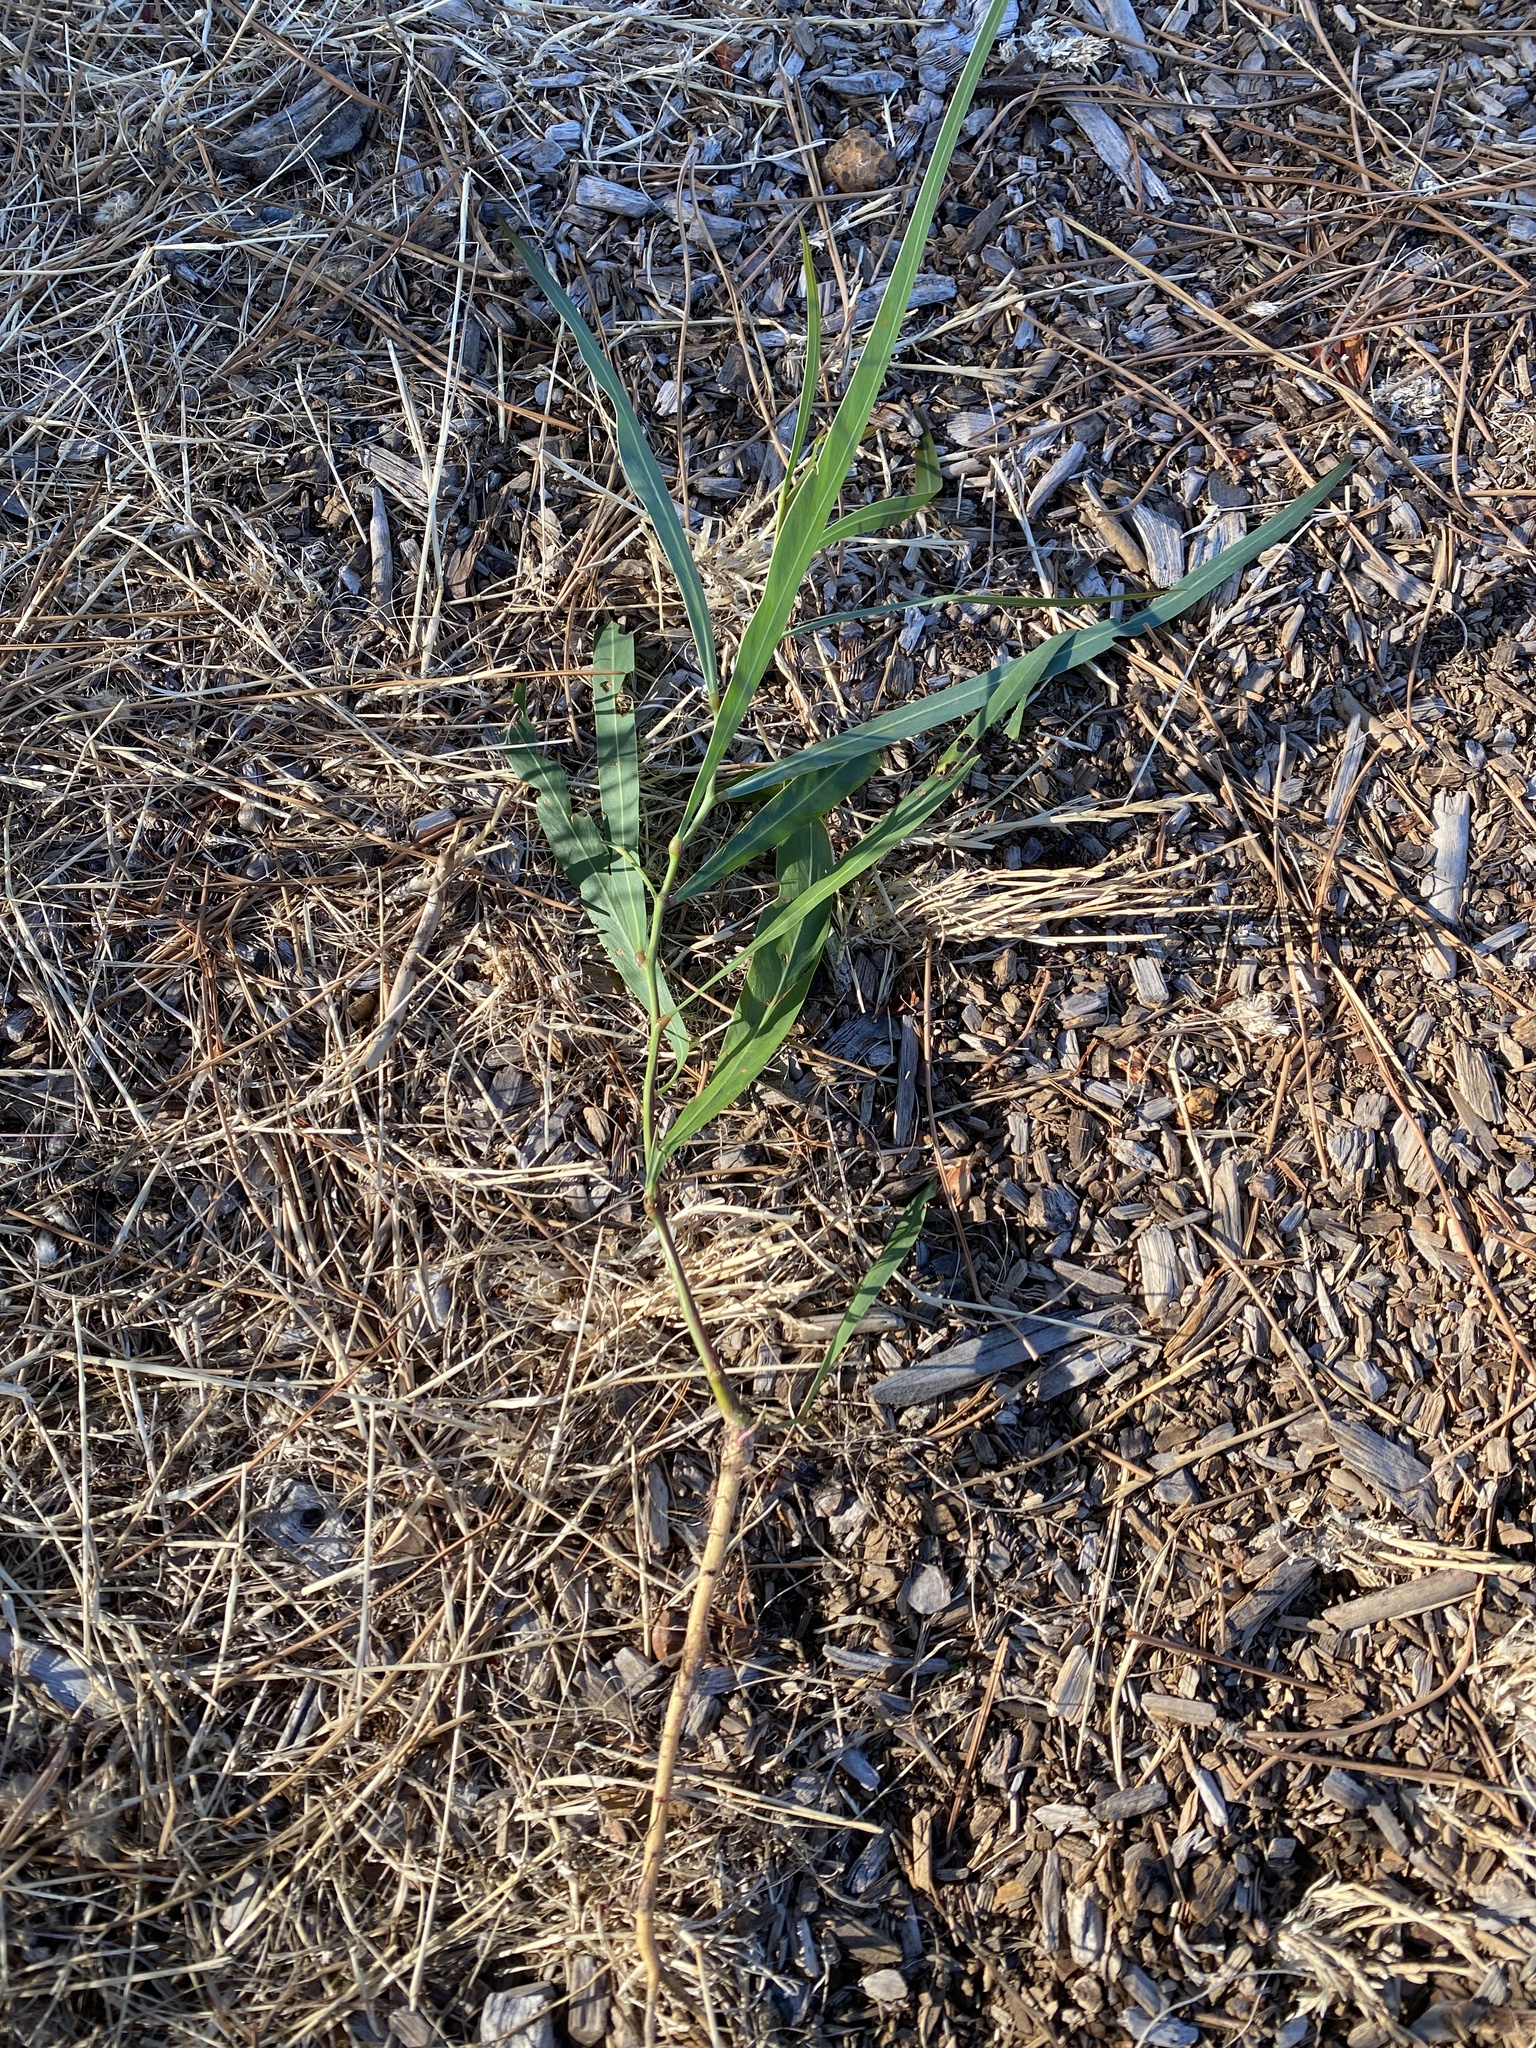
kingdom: Plantae
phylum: Tracheophyta
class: Magnoliopsida
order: Fabales
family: Fabaceae
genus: Acacia
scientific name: Acacia saligna
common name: Orange wattle
